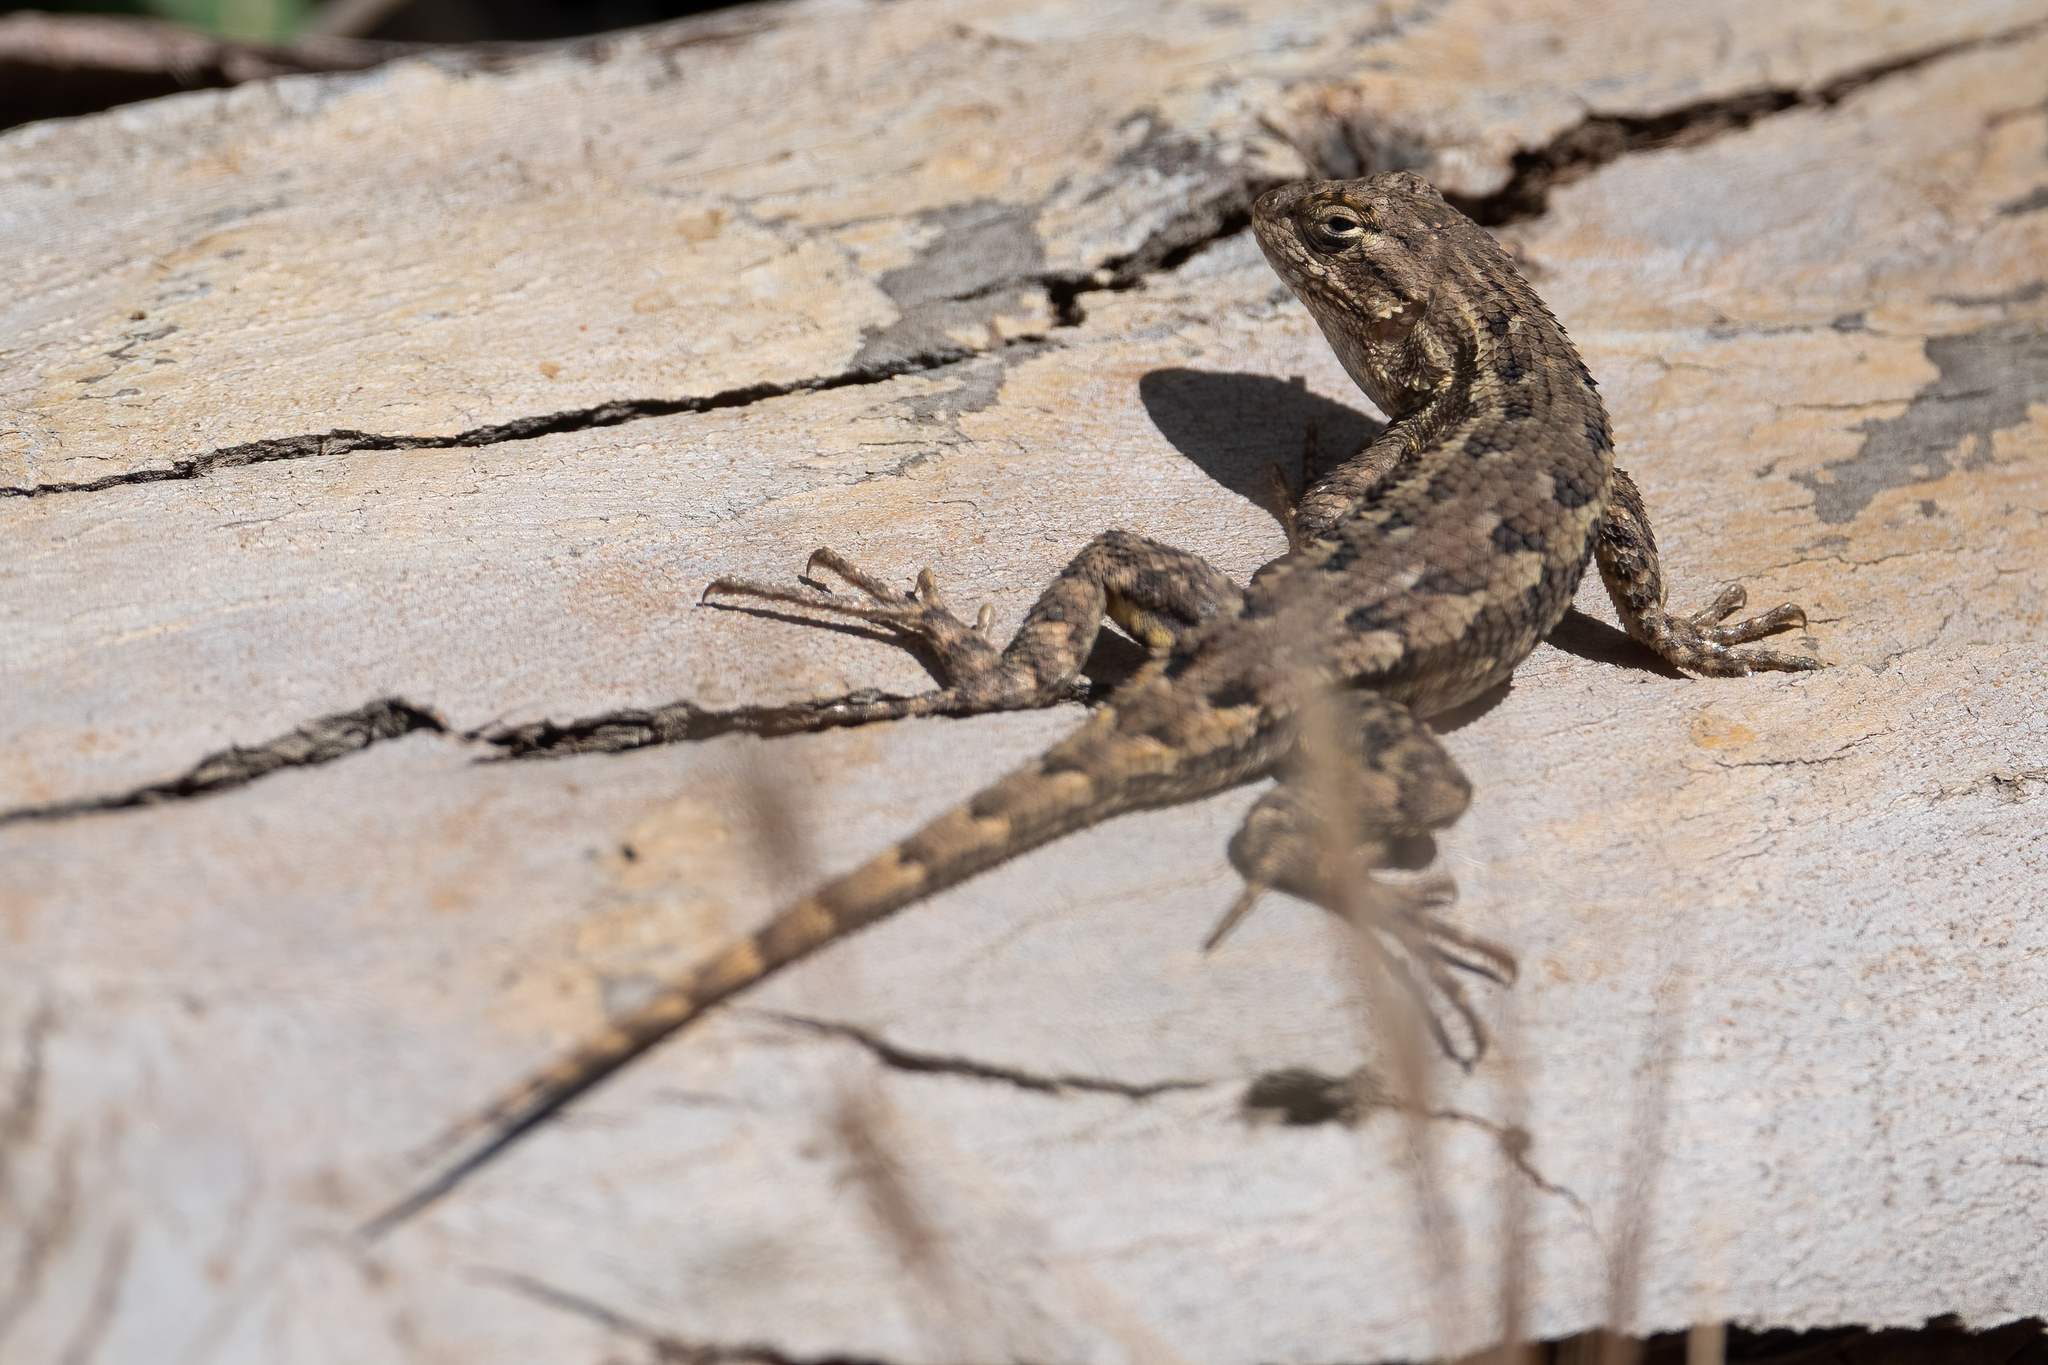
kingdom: Animalia
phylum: Chordata
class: Squamata
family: Phrynosomatidae
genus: Sceloporus
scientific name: Sceloporus occidentalis
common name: Western fence lizard
